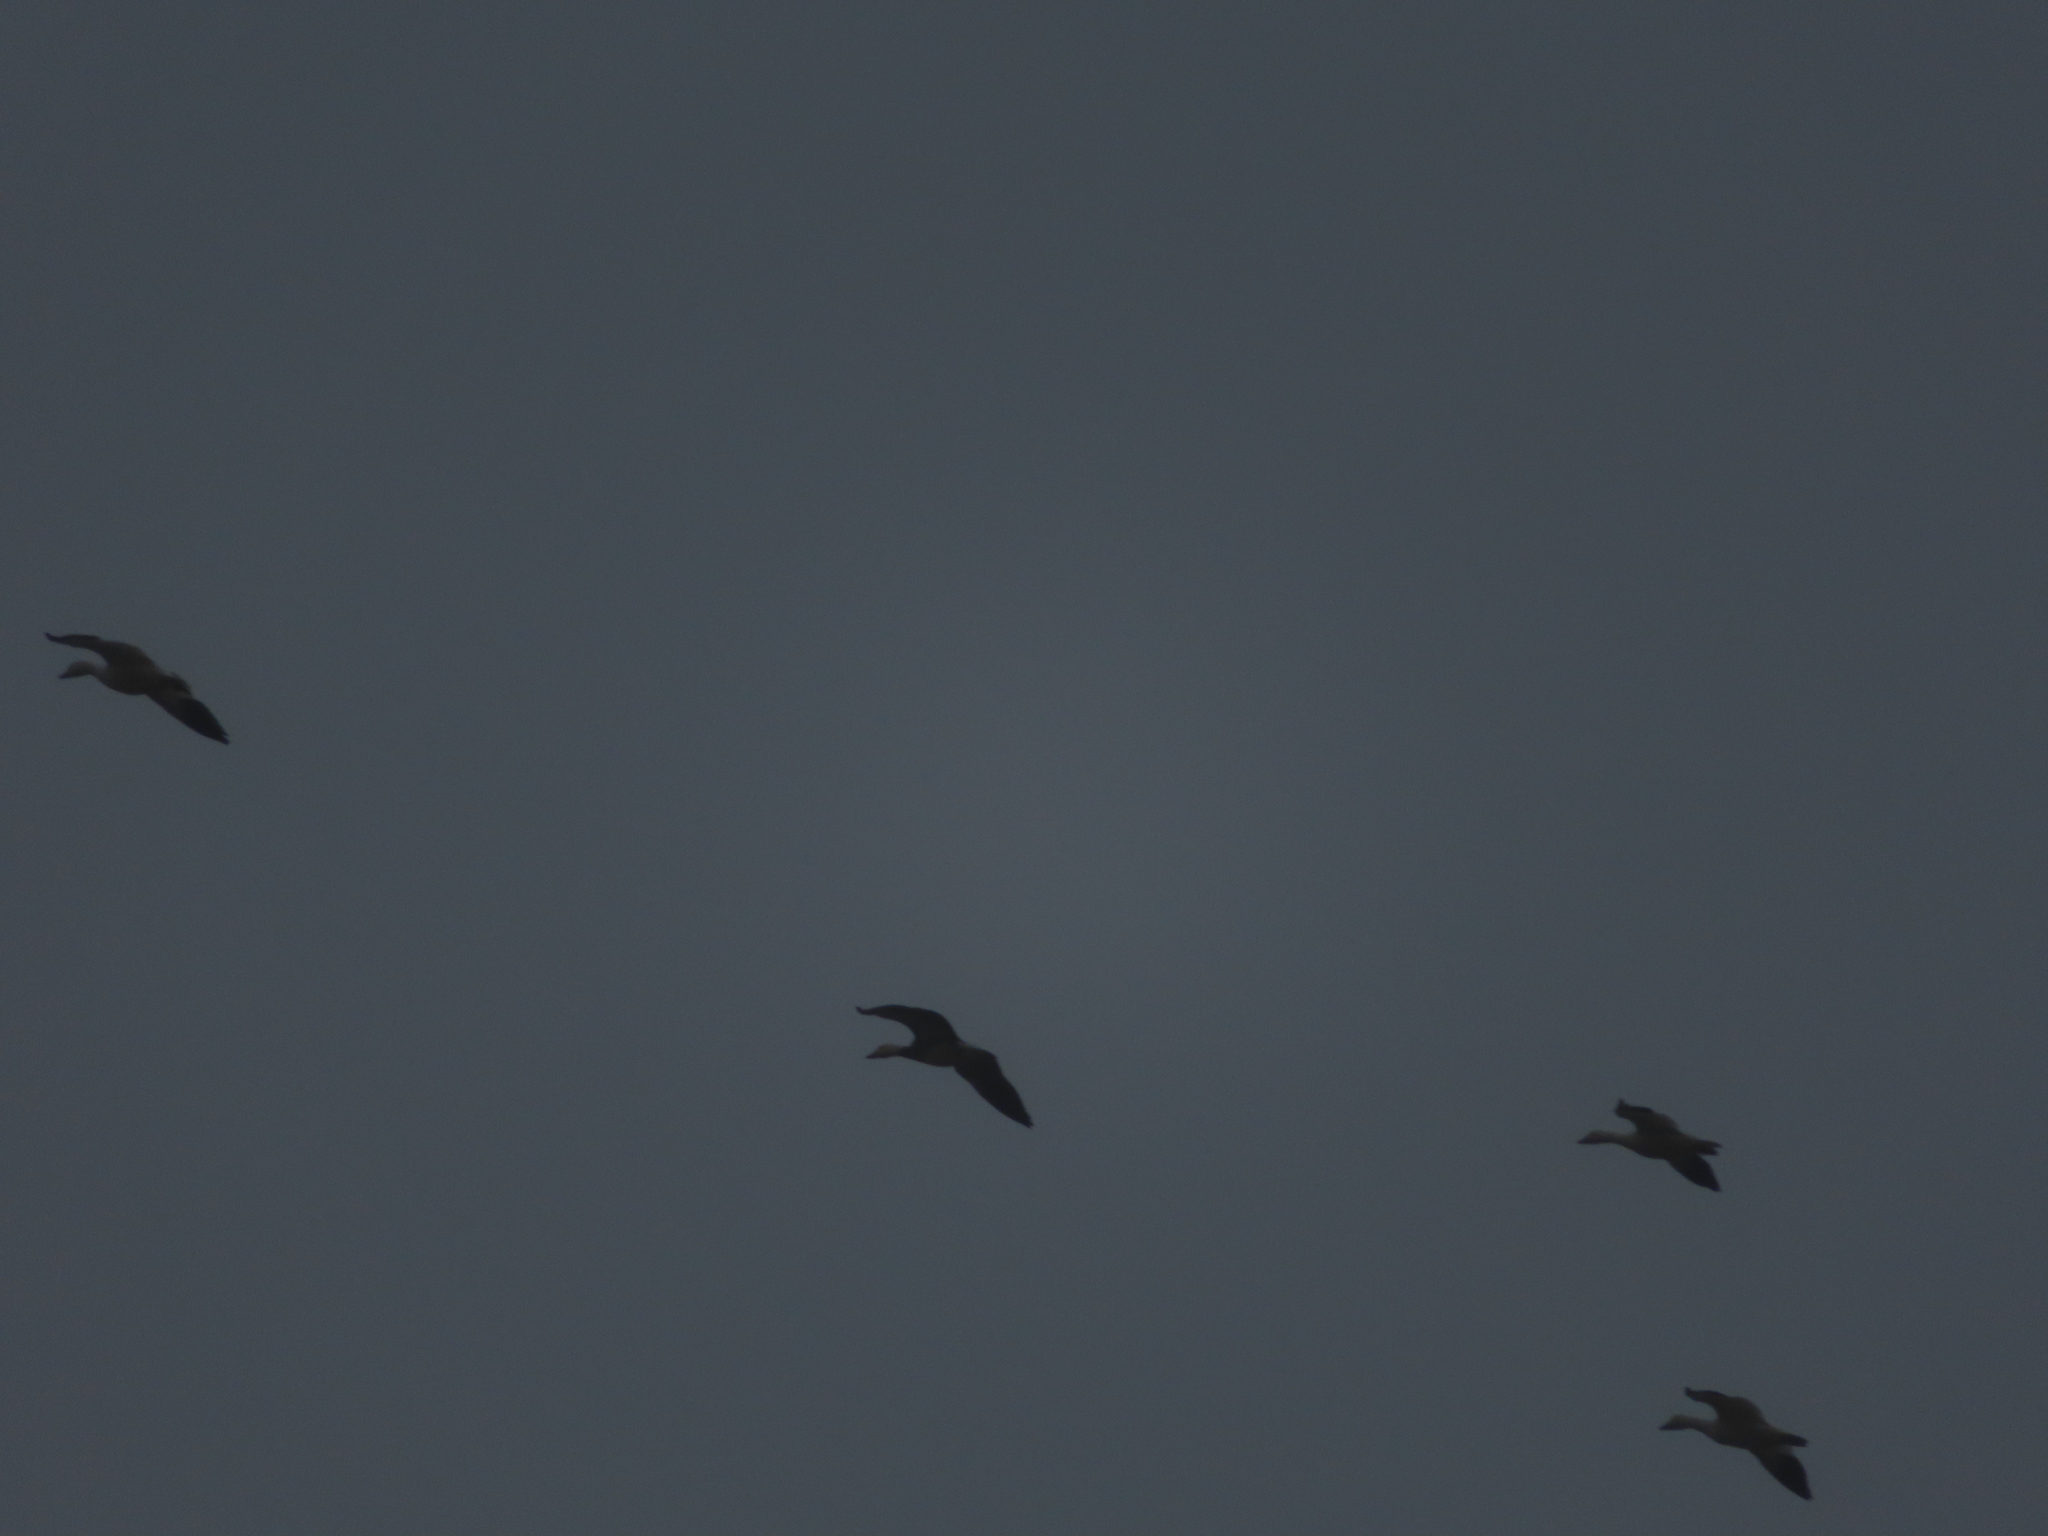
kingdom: Animalia
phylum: Chordata
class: Aves
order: Anseriformes
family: Anatidae
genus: Anser
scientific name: Anser caerulescens
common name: Snow goose
